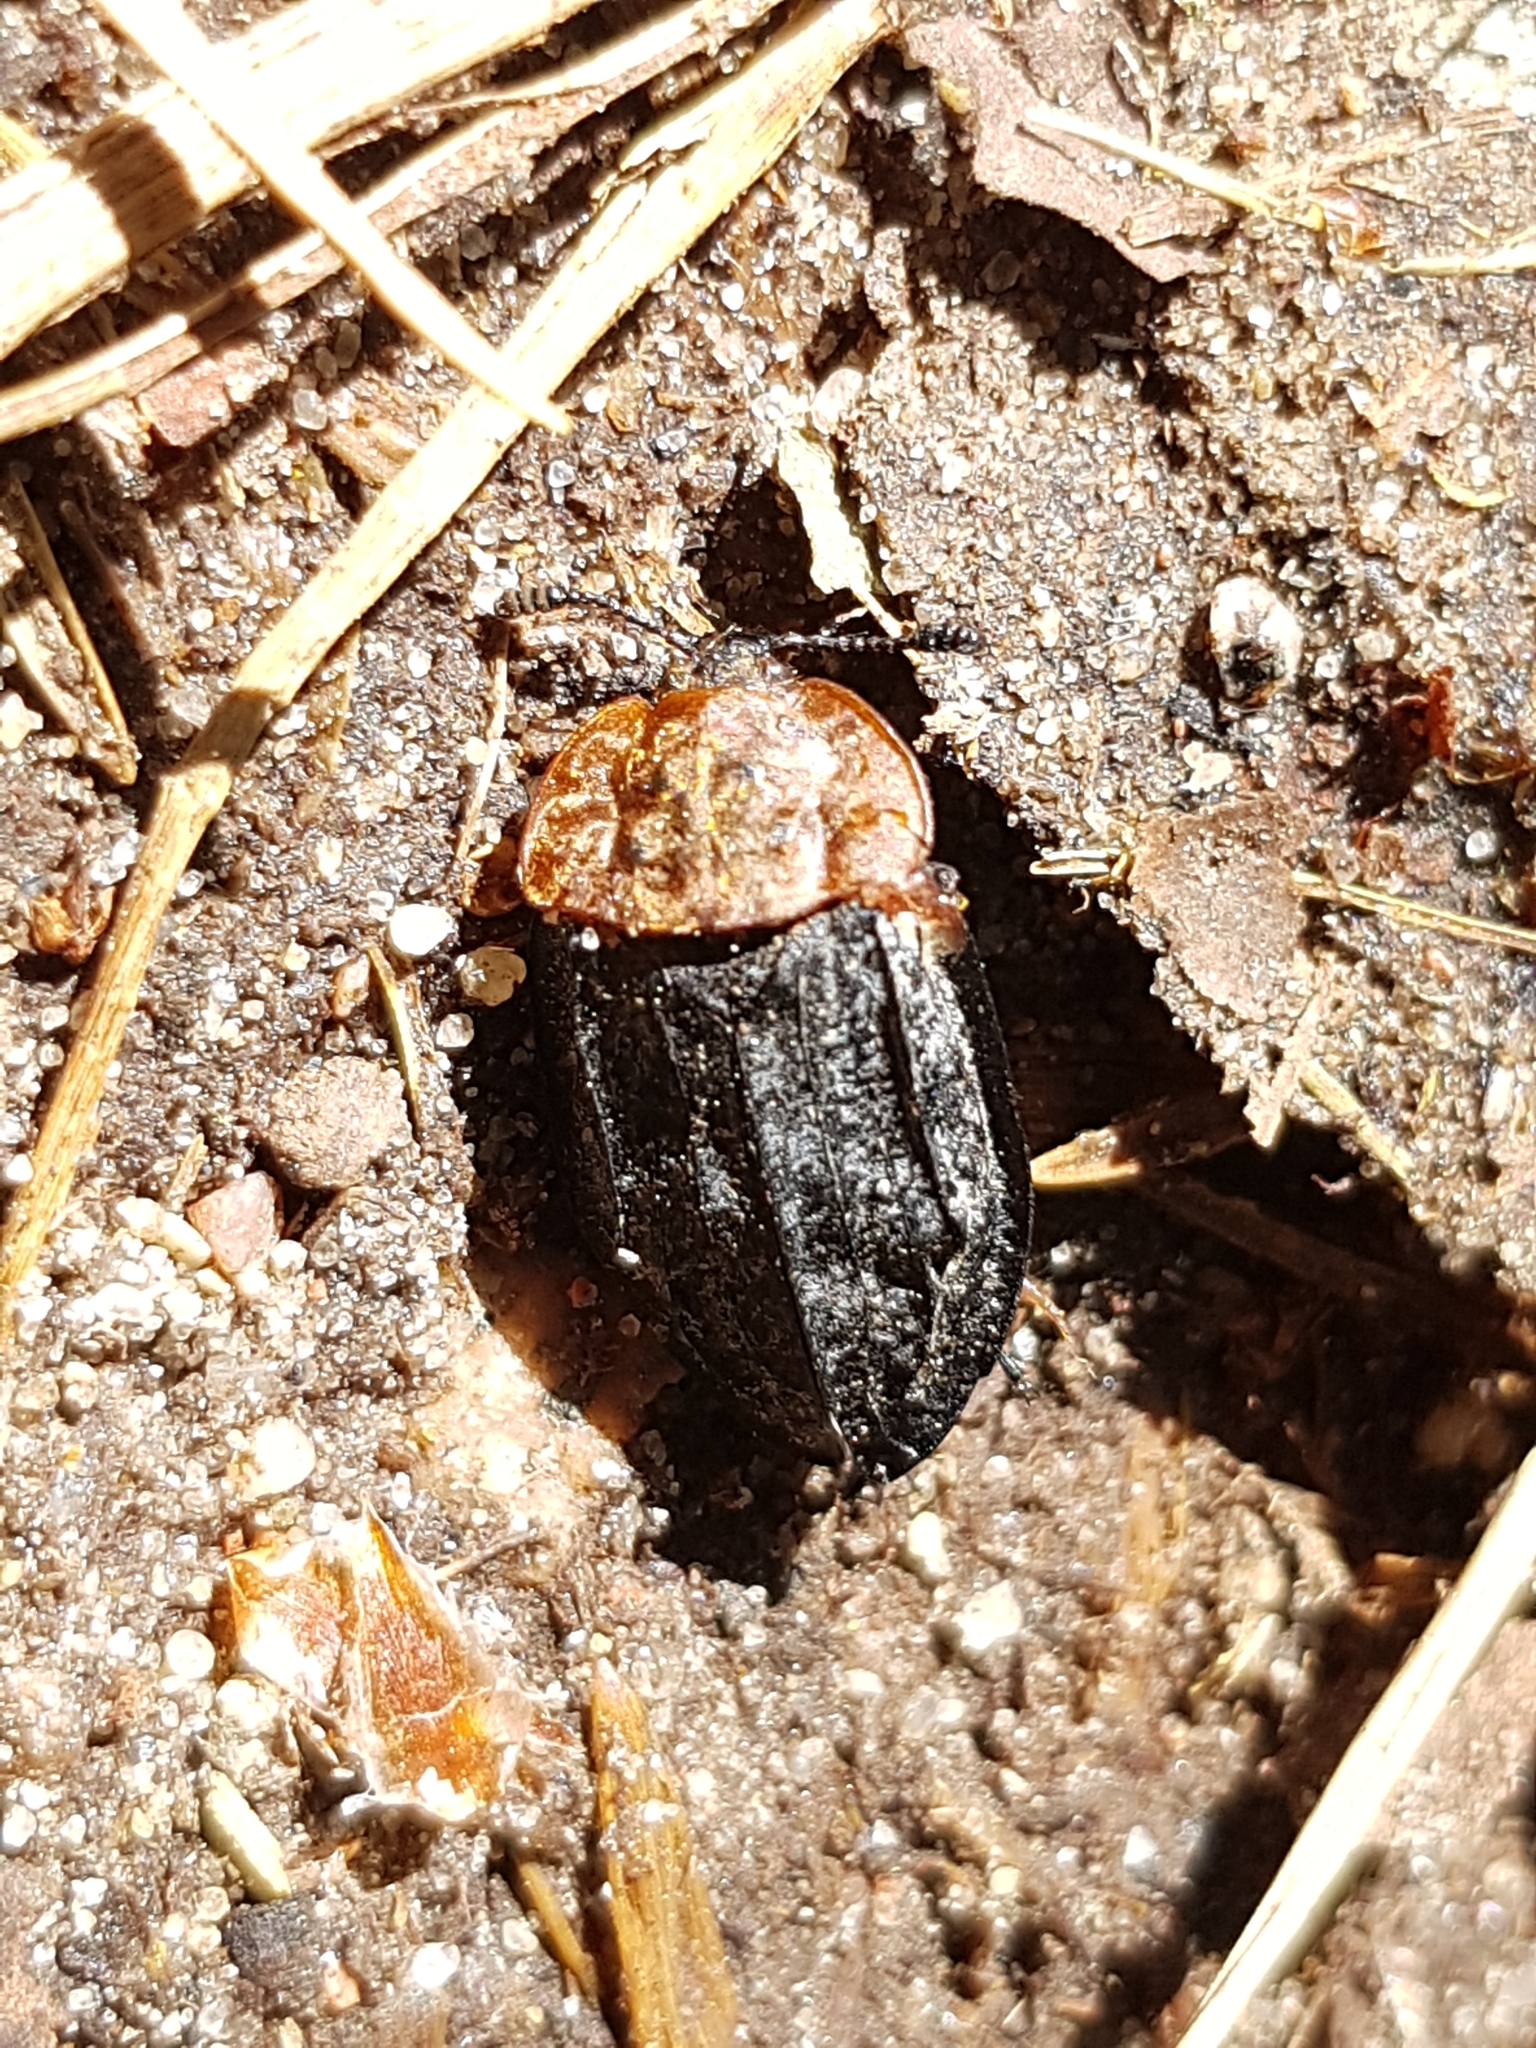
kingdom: Animalia
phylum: Arthropoda
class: Insecta
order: Coleoptera
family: Staphylinidae
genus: Oiceoptoma
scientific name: Oiceoptoma thoracicum
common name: Red-breasted carrion beetle
